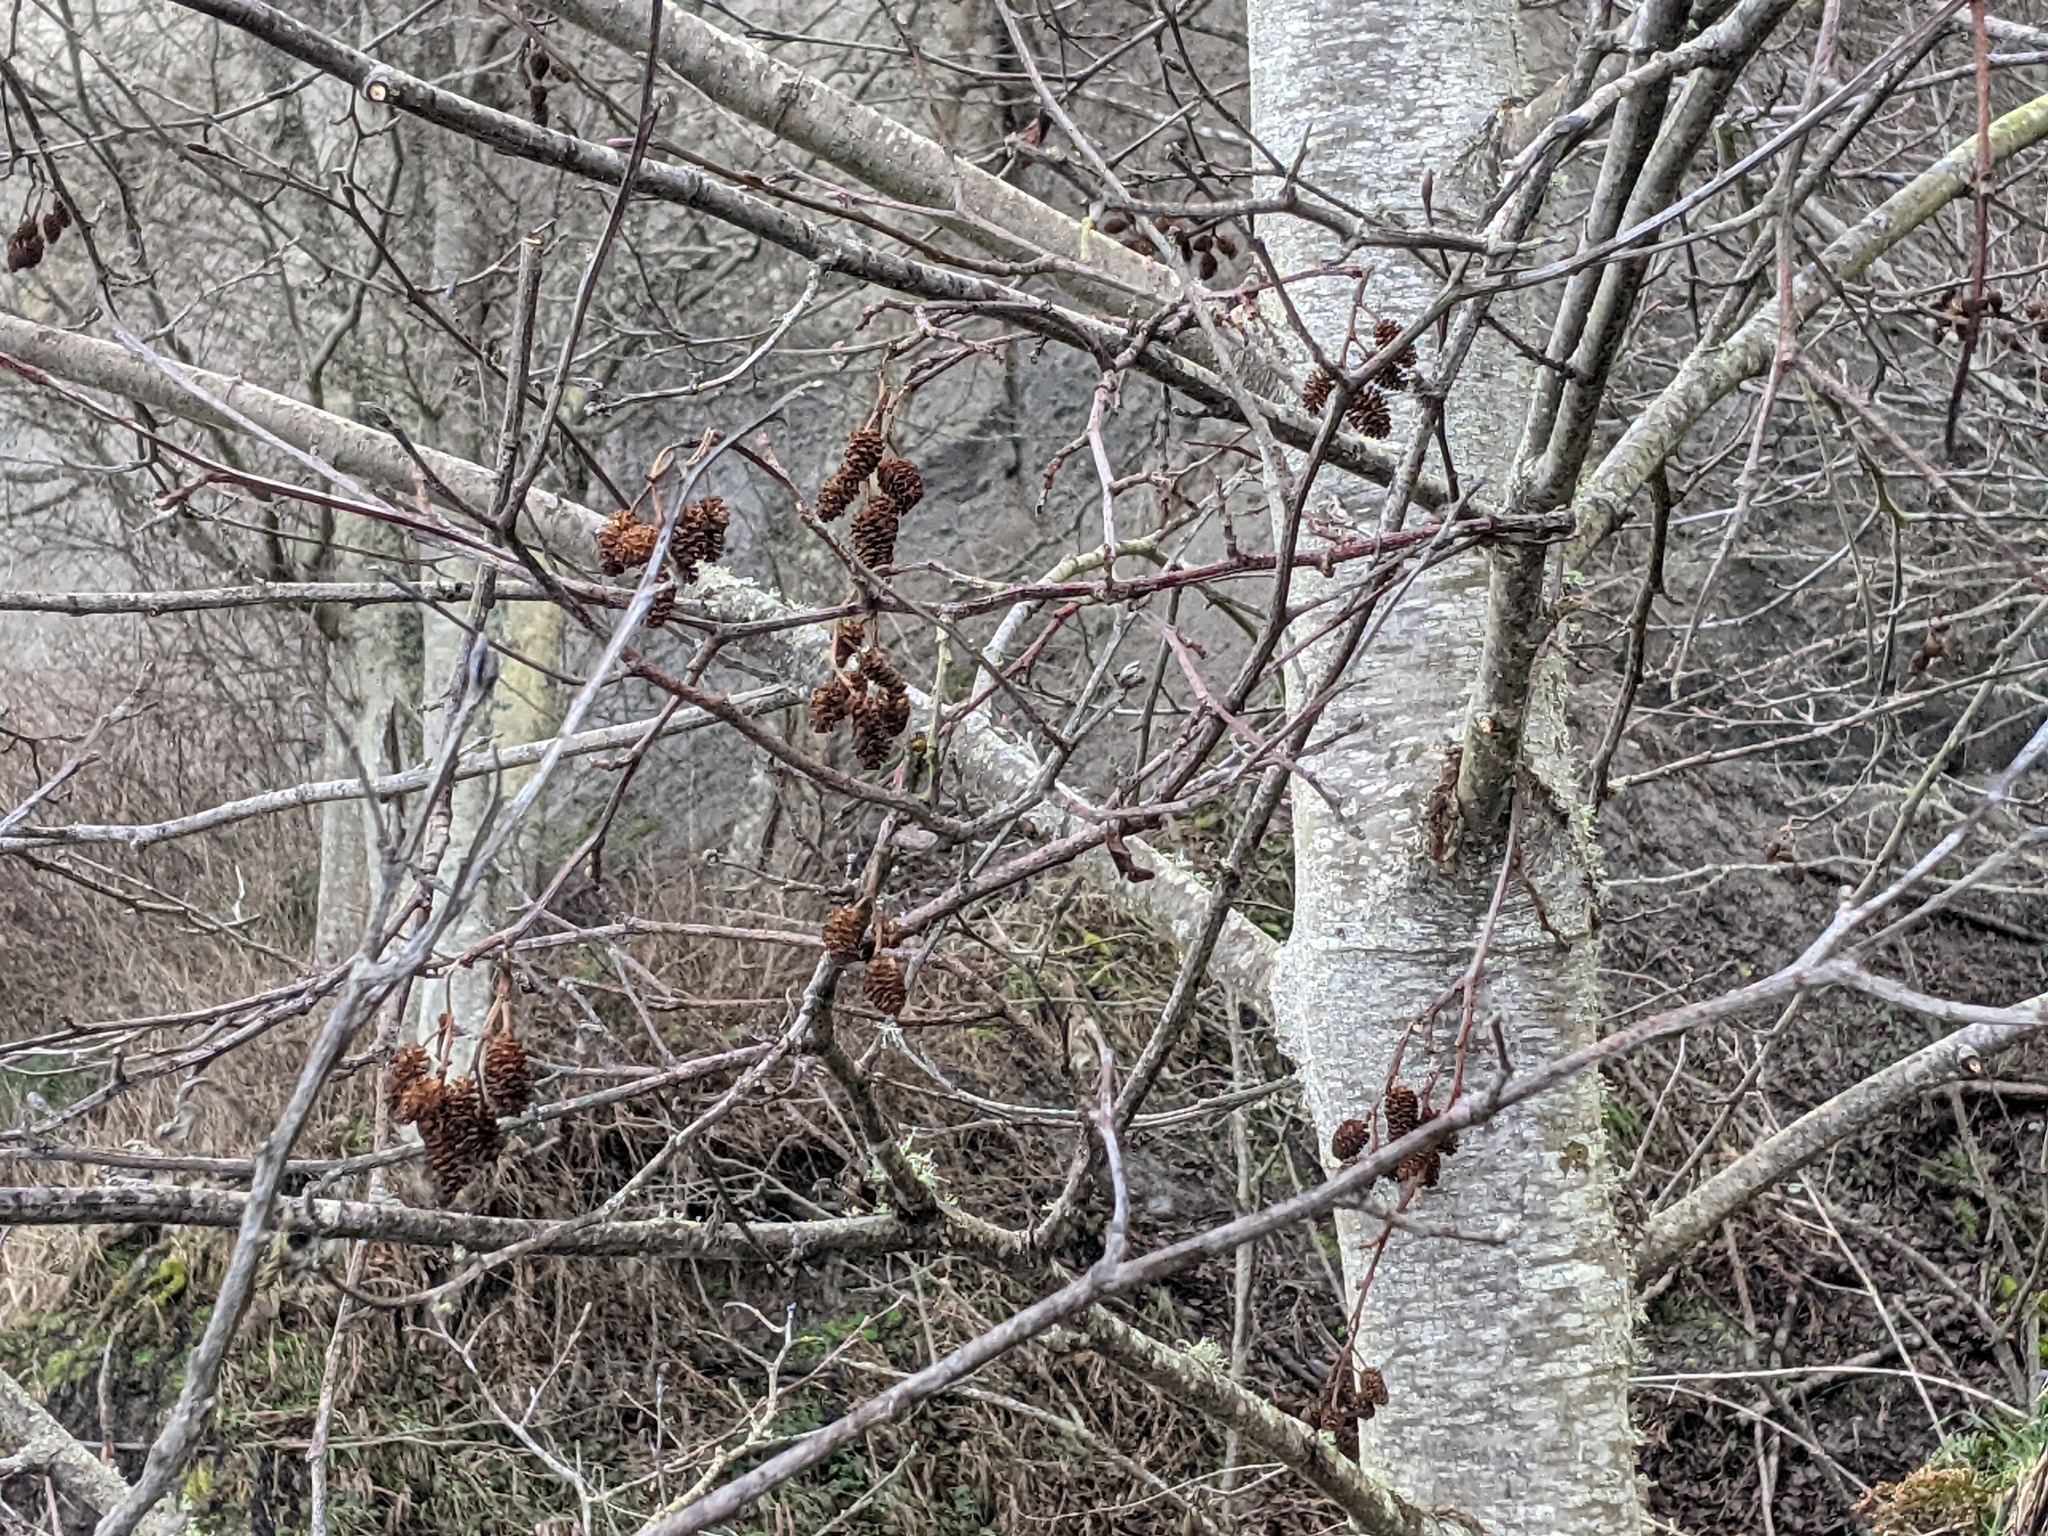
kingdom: Plantae
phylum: Tracheophyta
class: Magnoliopsida
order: Fagales
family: Betulaceae
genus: Alnus
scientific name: Alnus rubra
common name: Red alder
